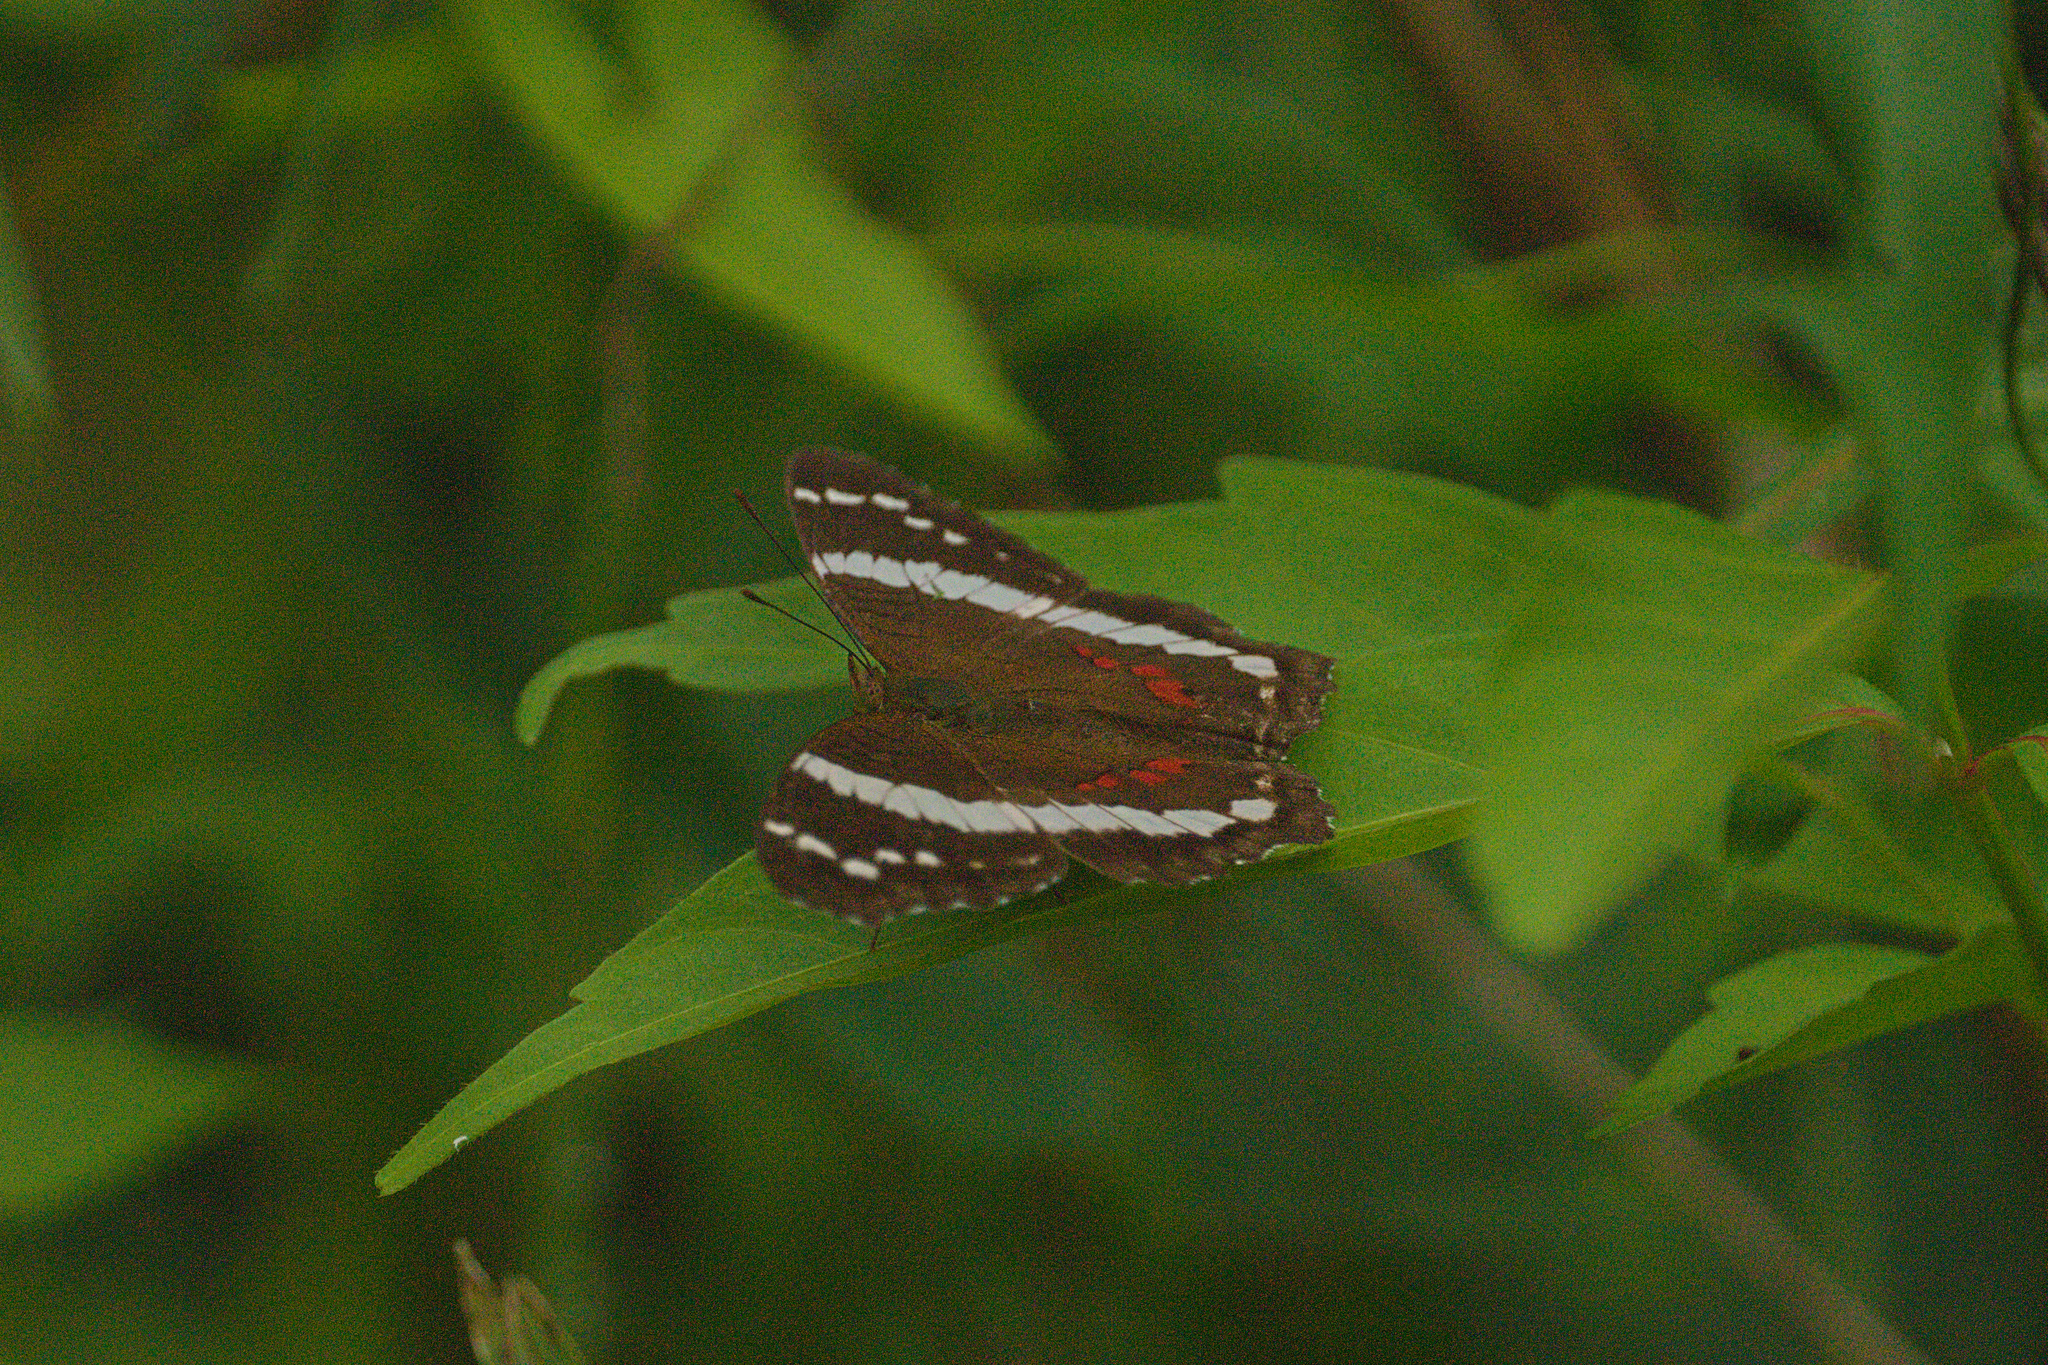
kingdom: Animalia
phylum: Arthropoda
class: Insecta
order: Lepidoptera
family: Nymphalidae
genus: Anartia
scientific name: Anartia fatima
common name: Banded peacock
